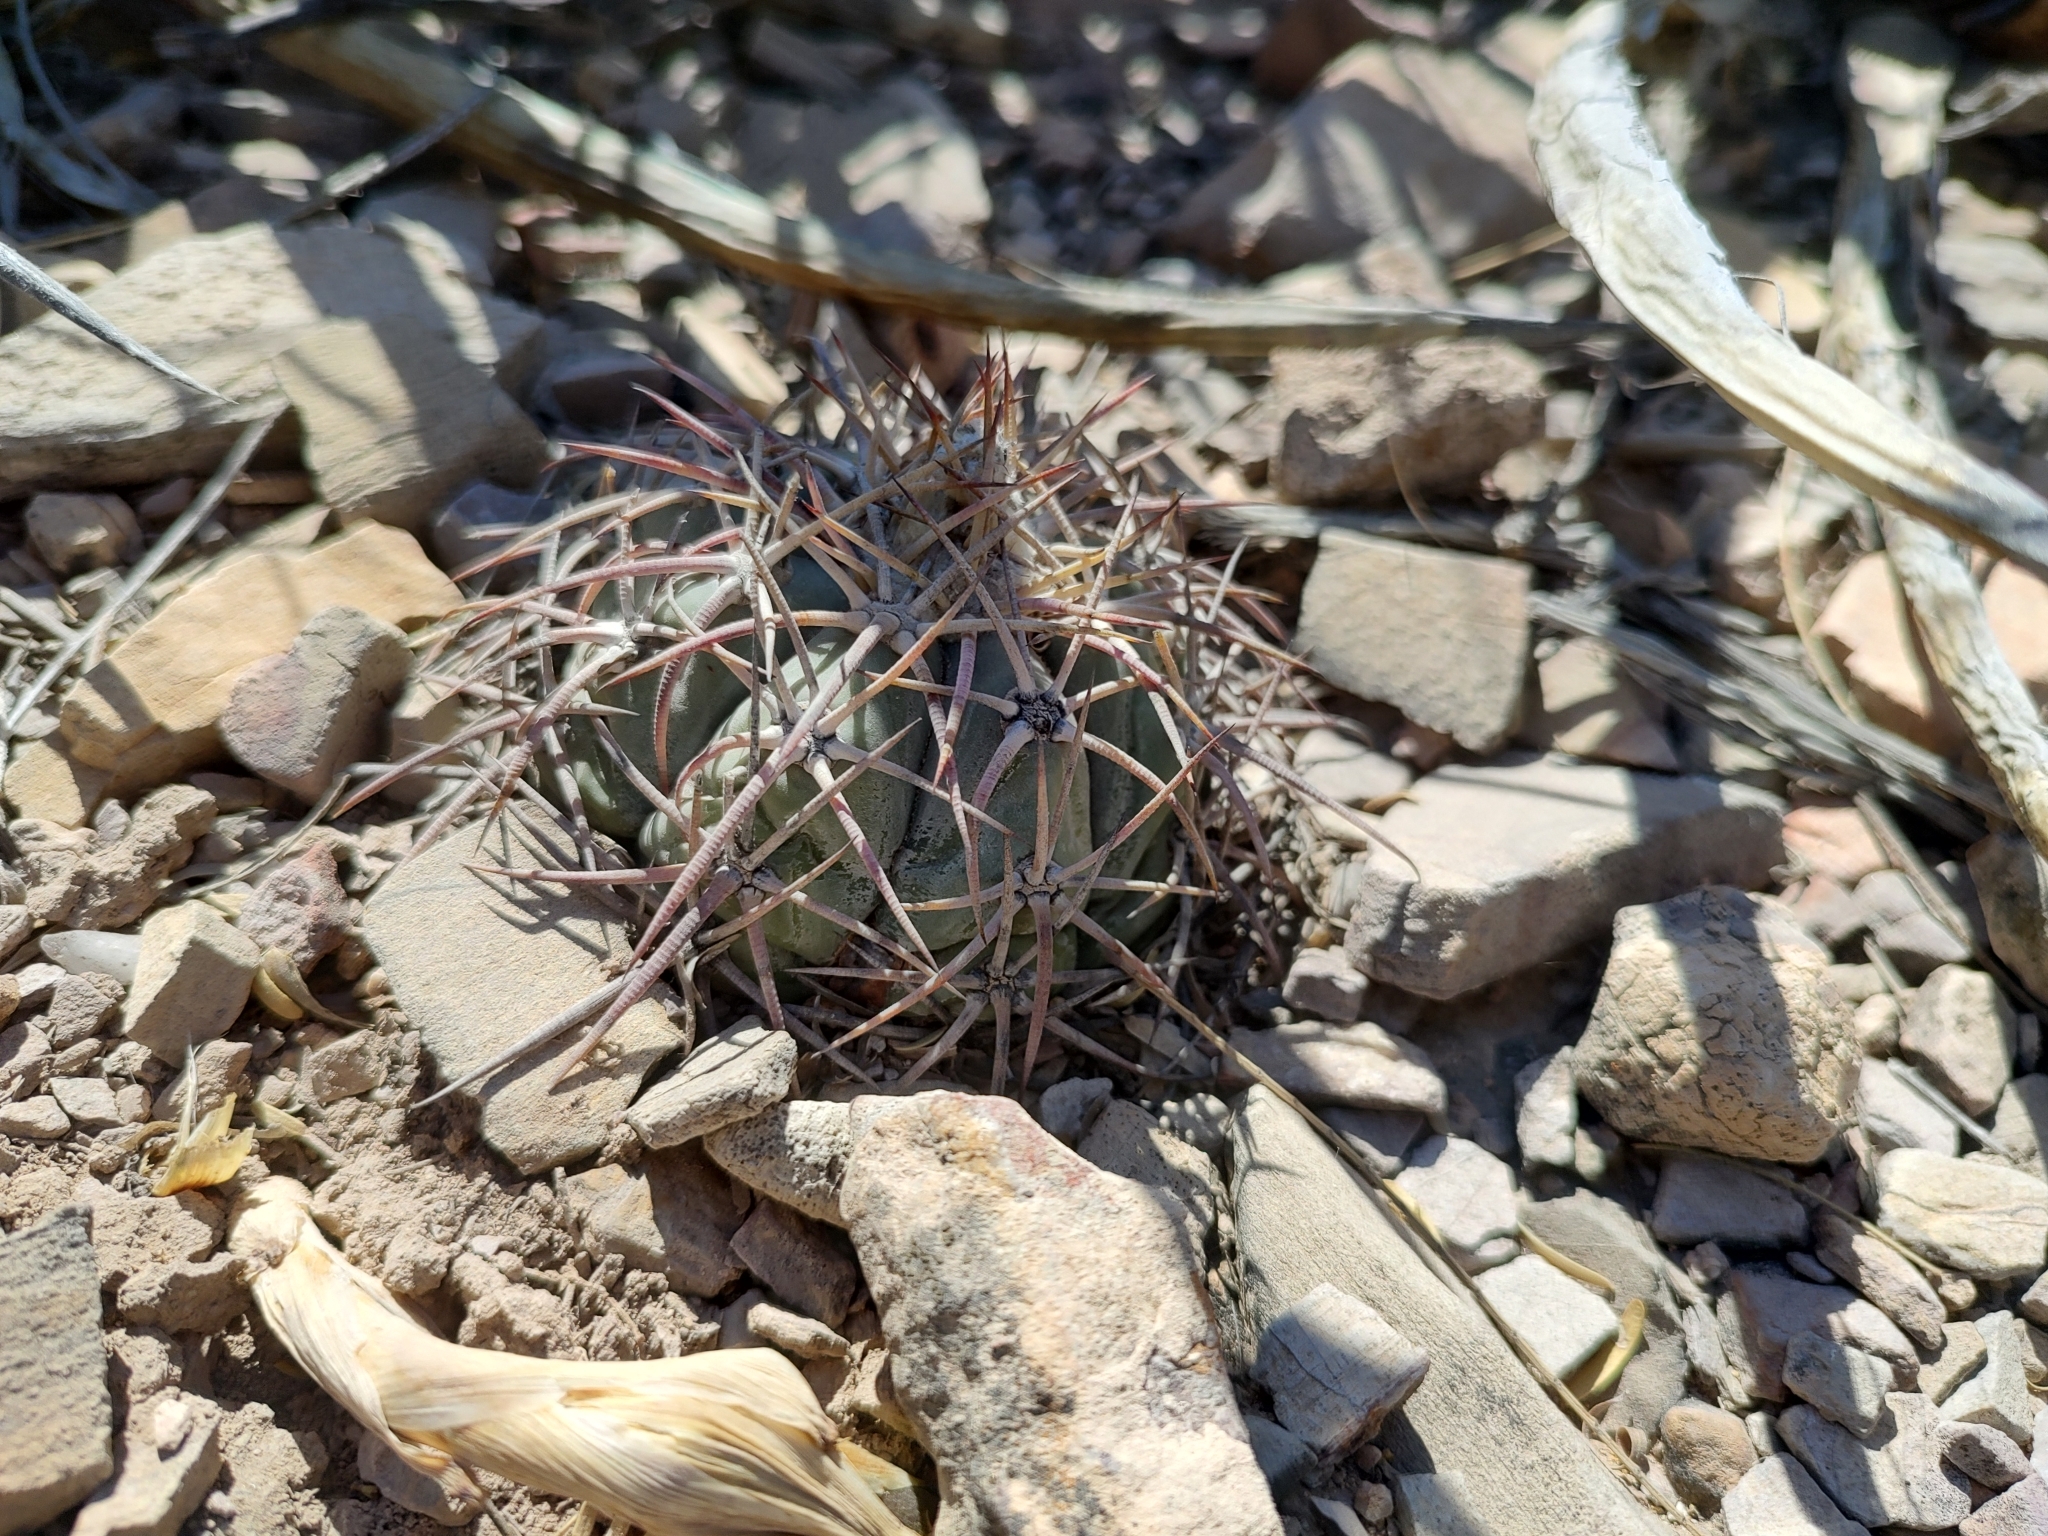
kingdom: Plantae
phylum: Tracheophyta
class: Magnoliopsida
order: Caryophyllales
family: Cactaceae
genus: Echinocactus
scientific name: Echinocactus horizonthalonius
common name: Devilshead
